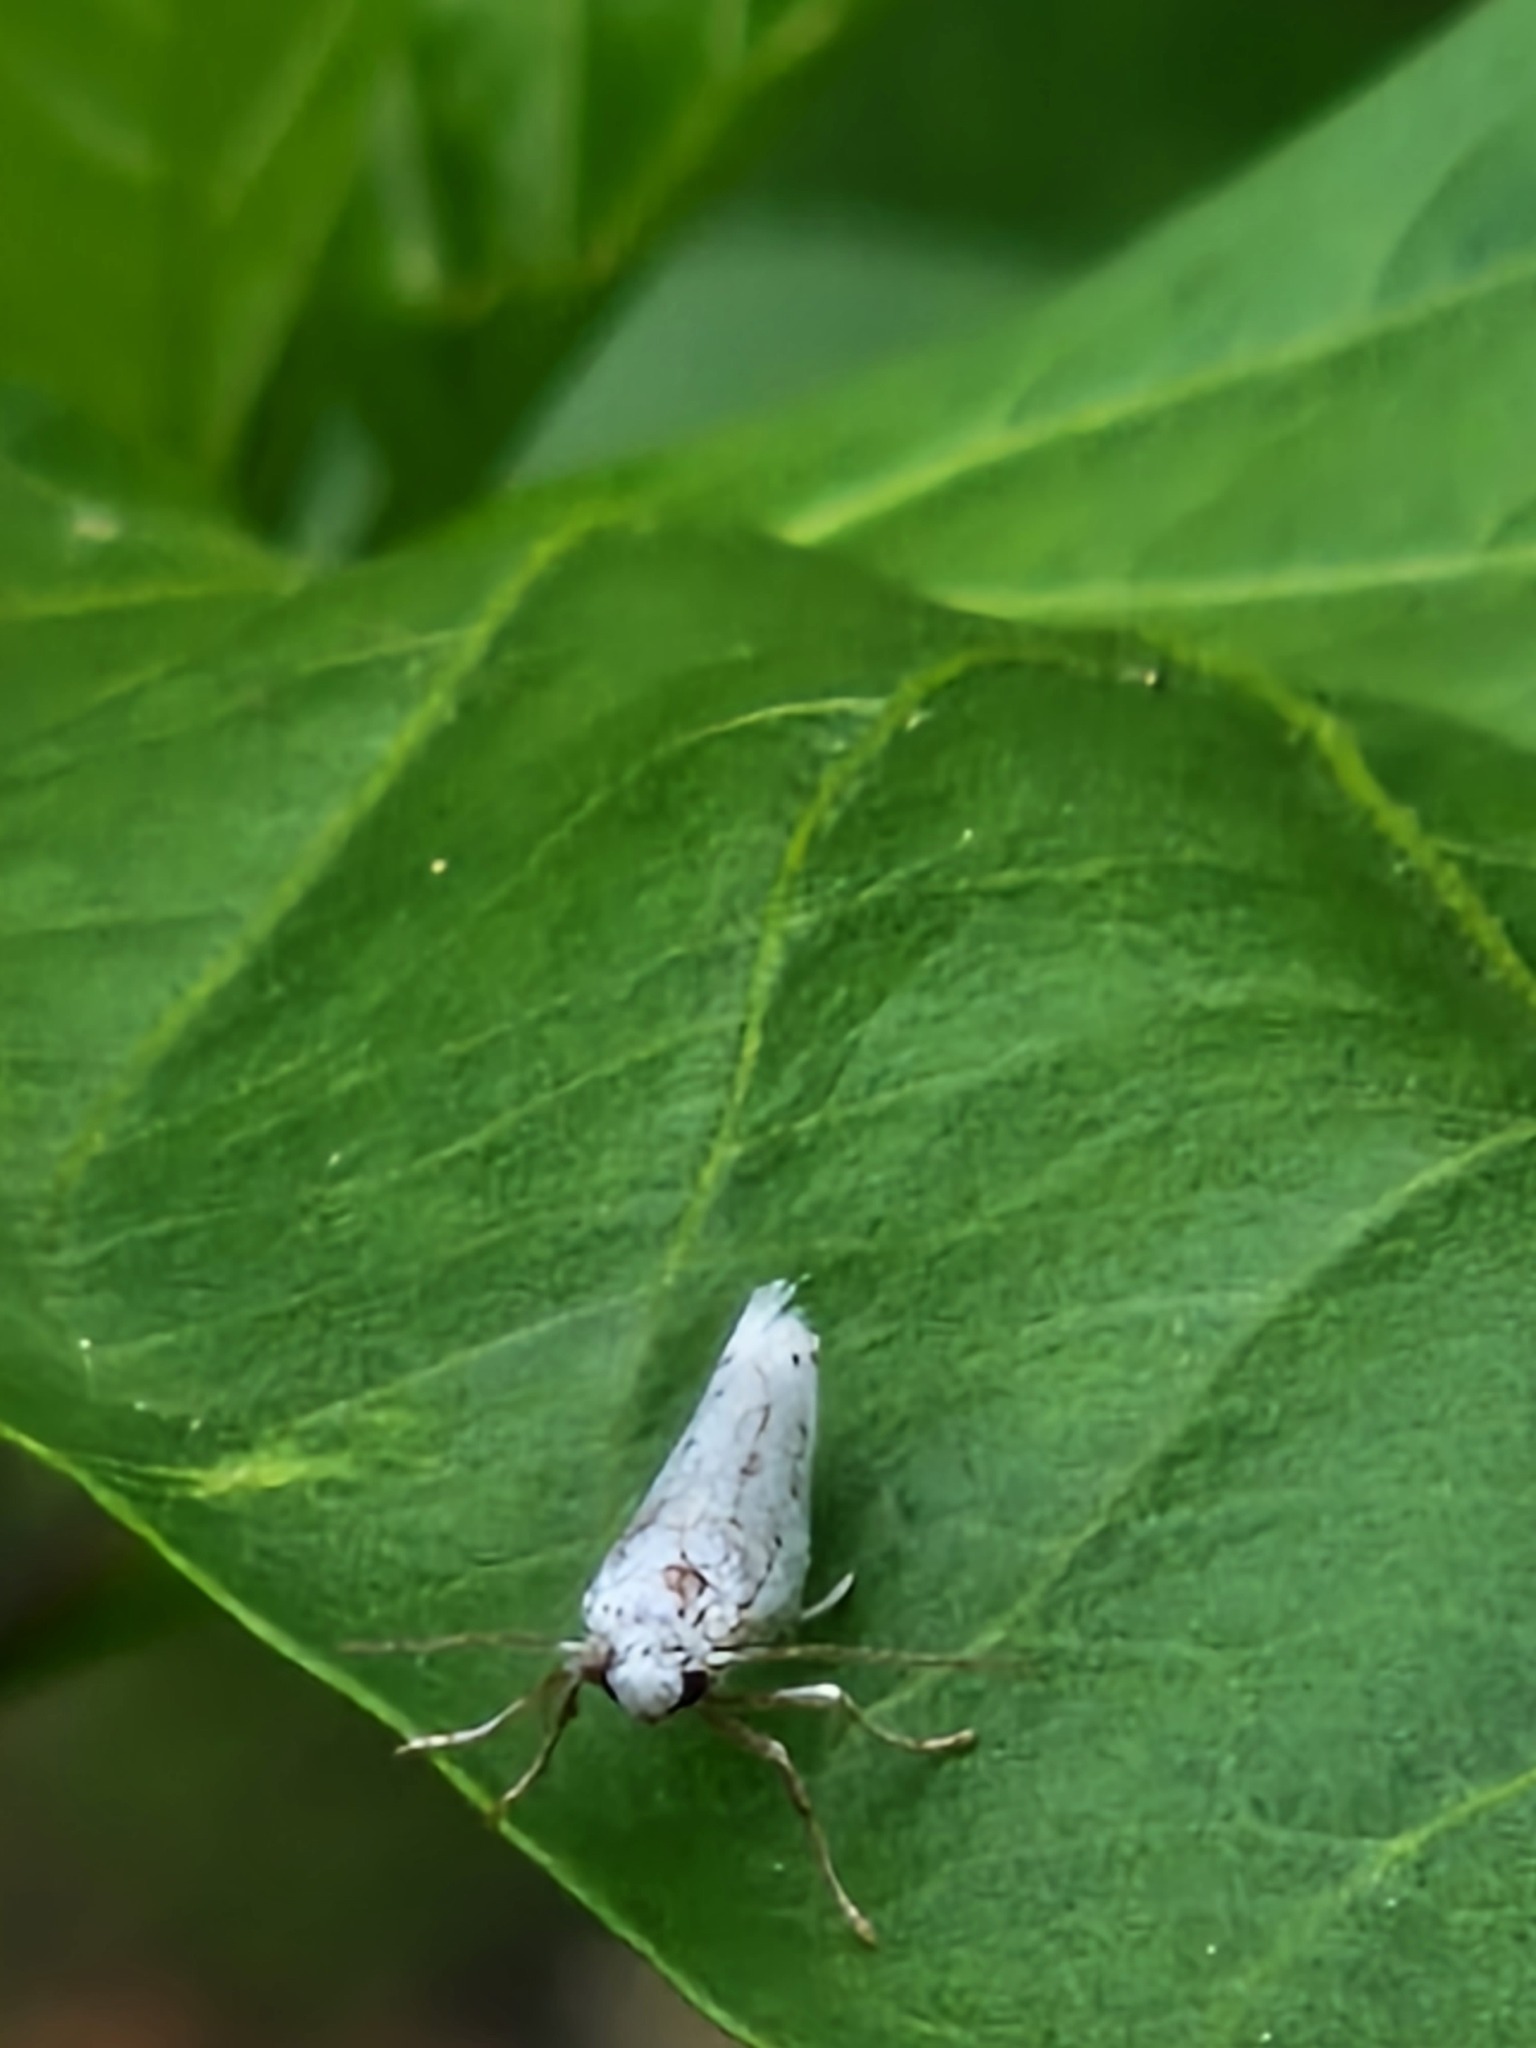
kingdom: Animalia
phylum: Arthropoda
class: Insecta
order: Lepidoptera
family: Yponomeutidae
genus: Yponomeuta
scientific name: Yponomeuta
